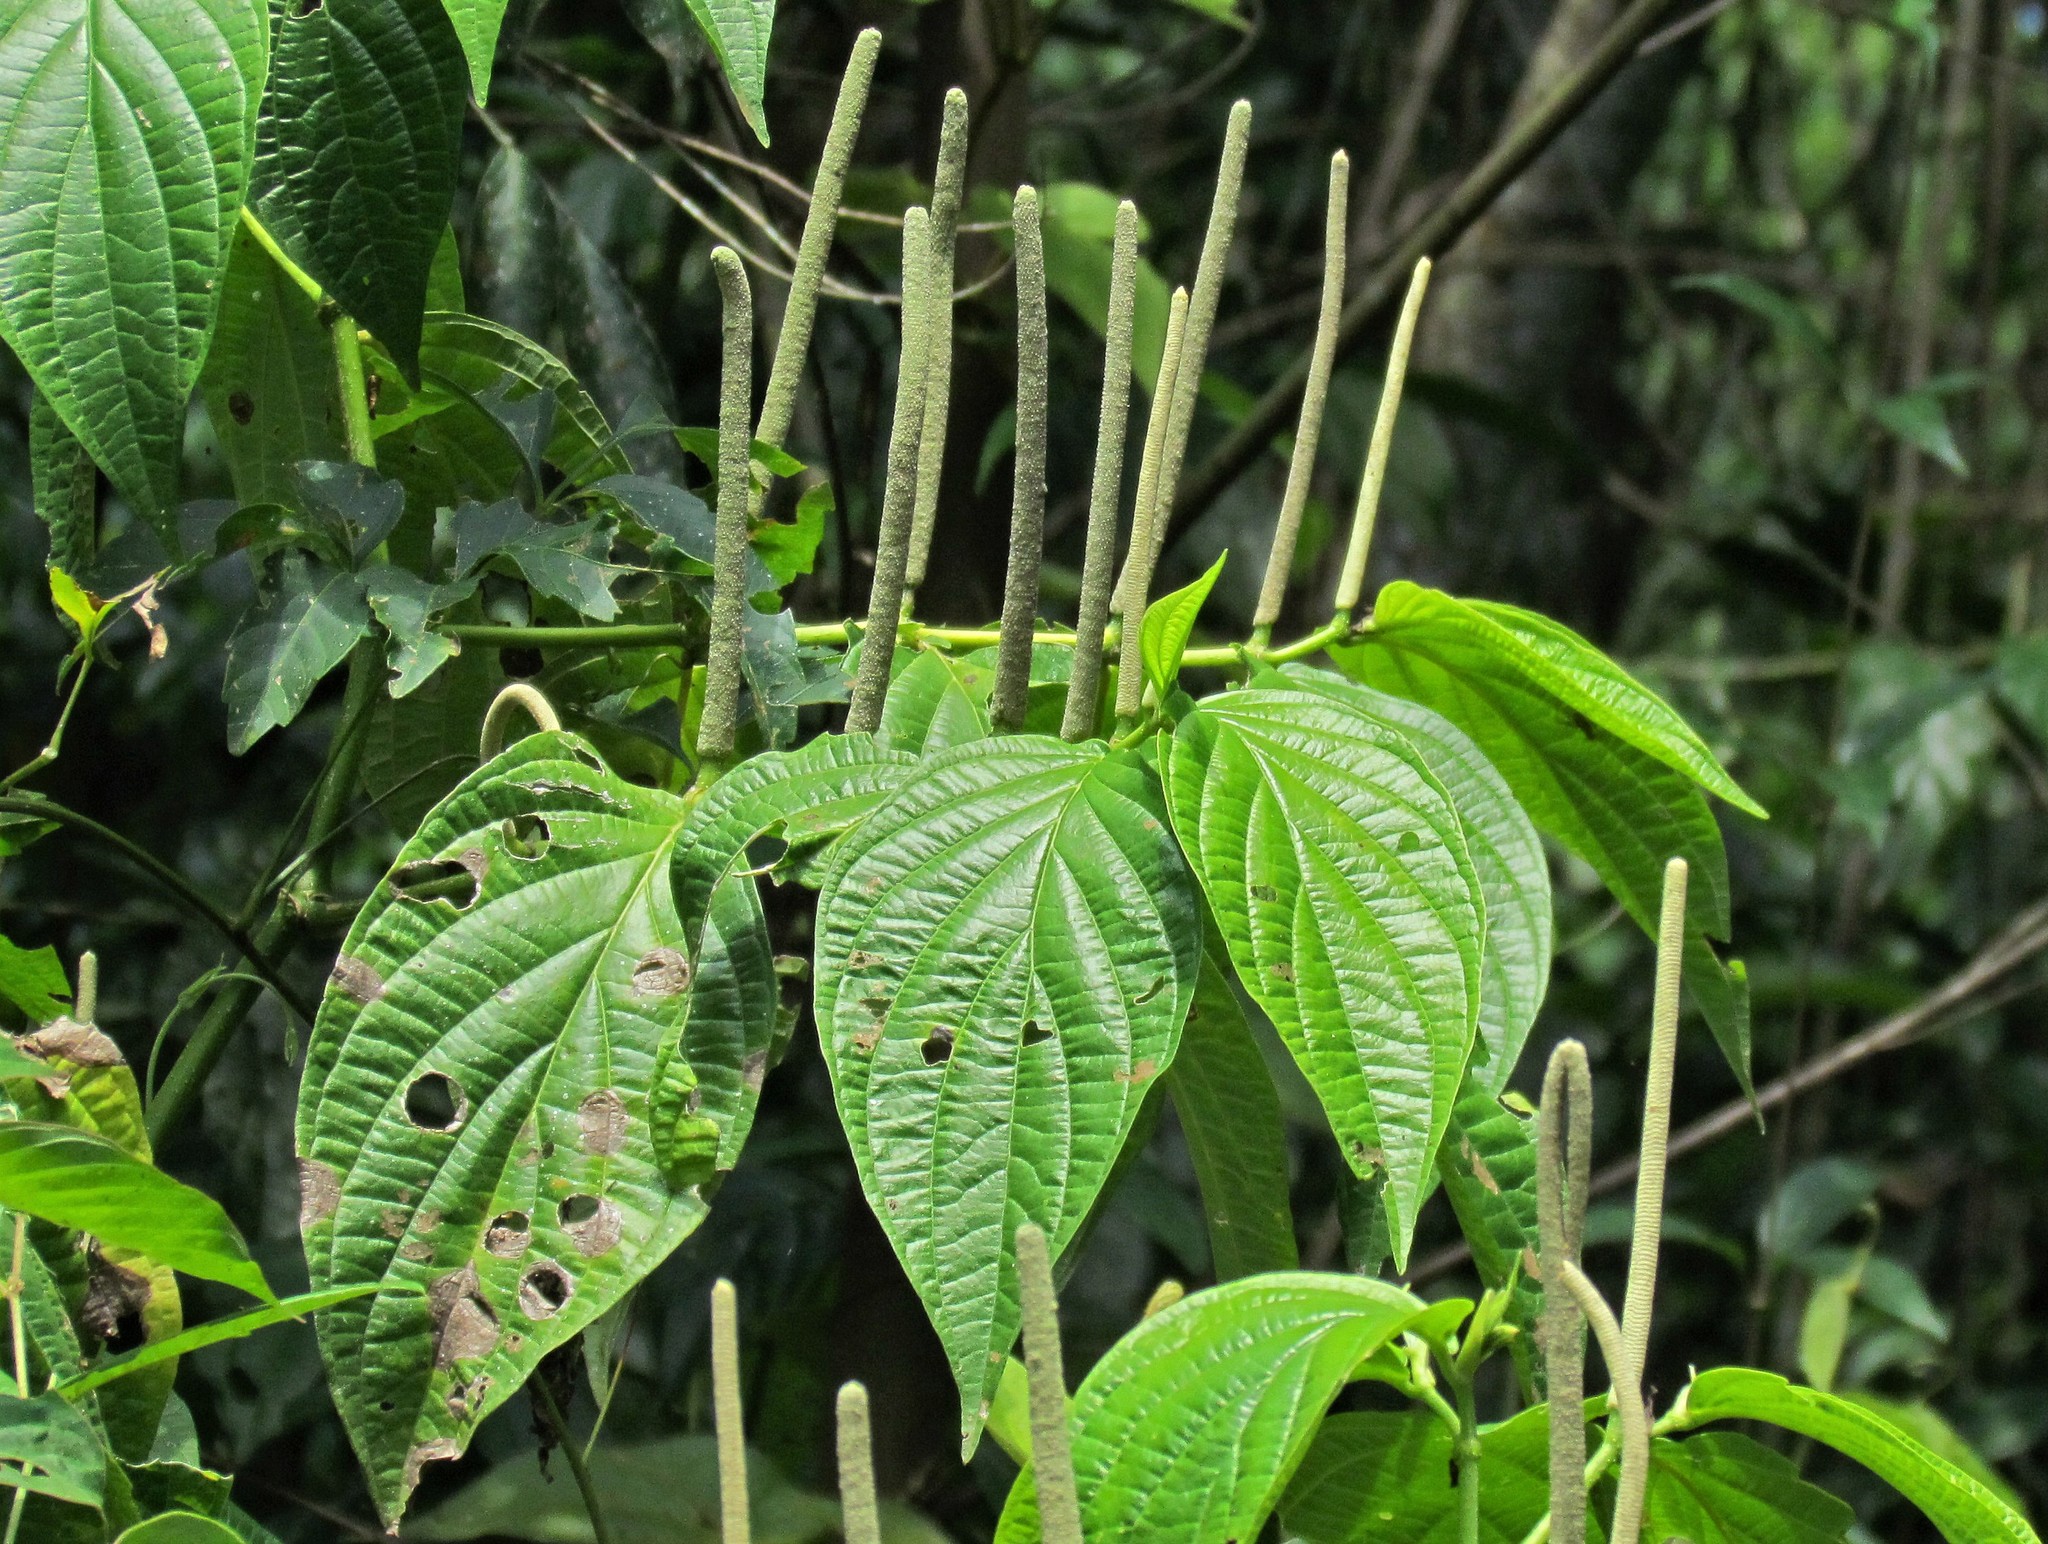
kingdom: Plantae
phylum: Tracheophyta
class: Magnoliopsida
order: Piperales
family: Piperaceae
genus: Piper
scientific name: Piper aduncum
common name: Spiked pepper
